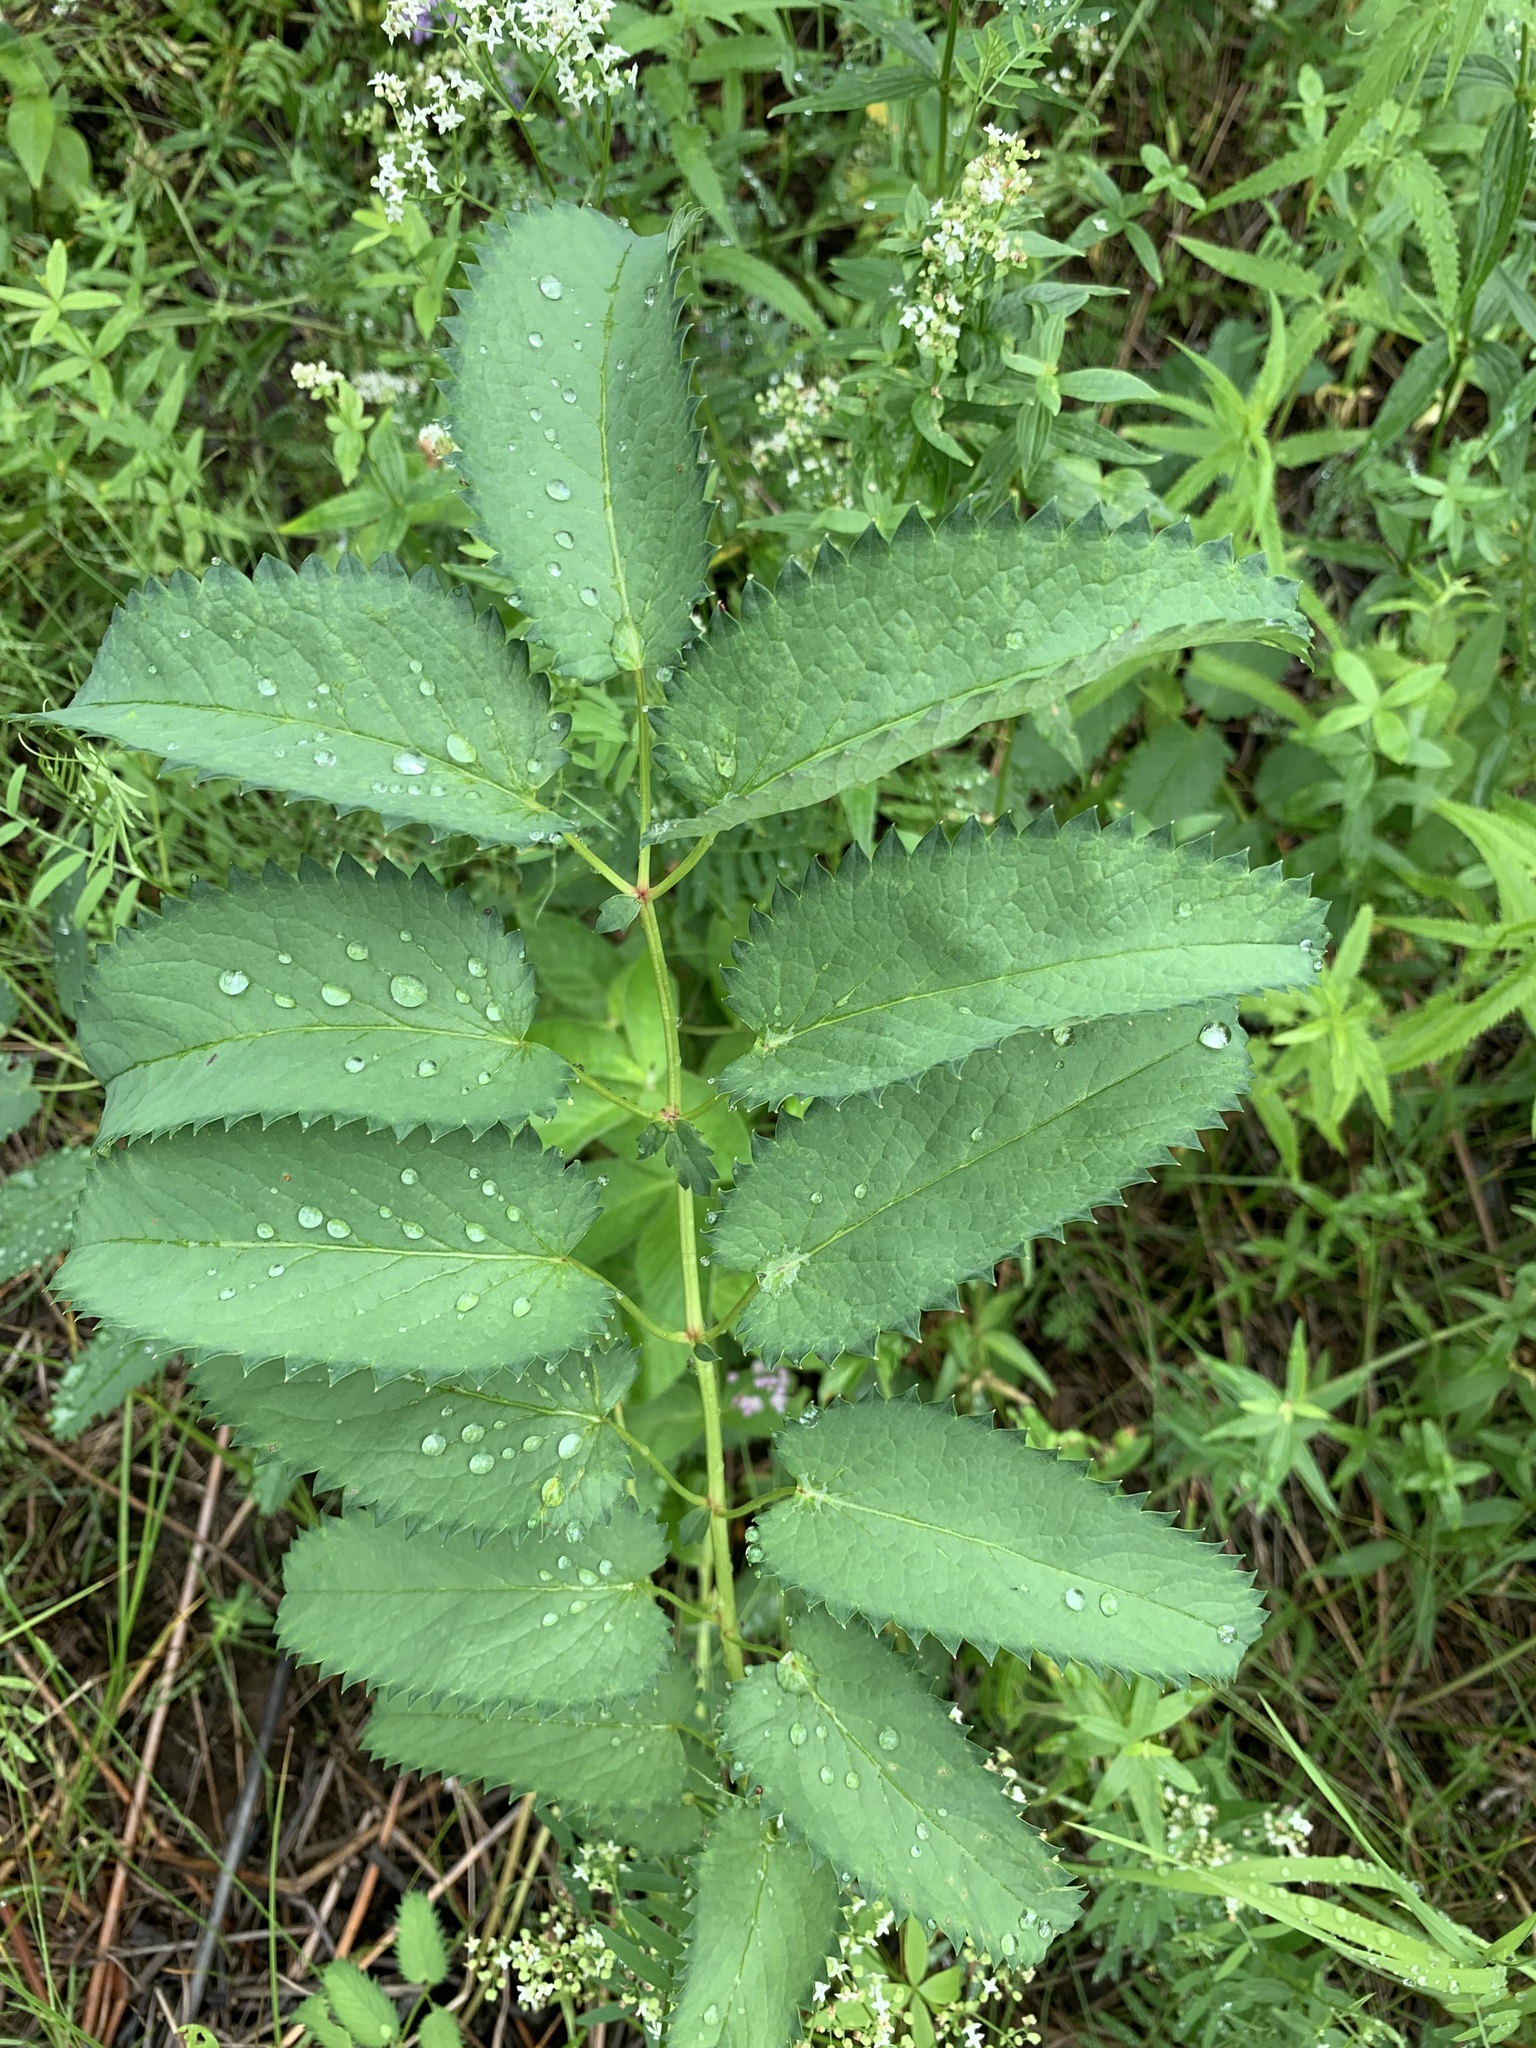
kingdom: Plantae
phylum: Tracheophyta
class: Magnoliopsida
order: Rosales
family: Rosaceae
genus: Sanguisorba
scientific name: Sanguisorba officinalis
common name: Great burnet
